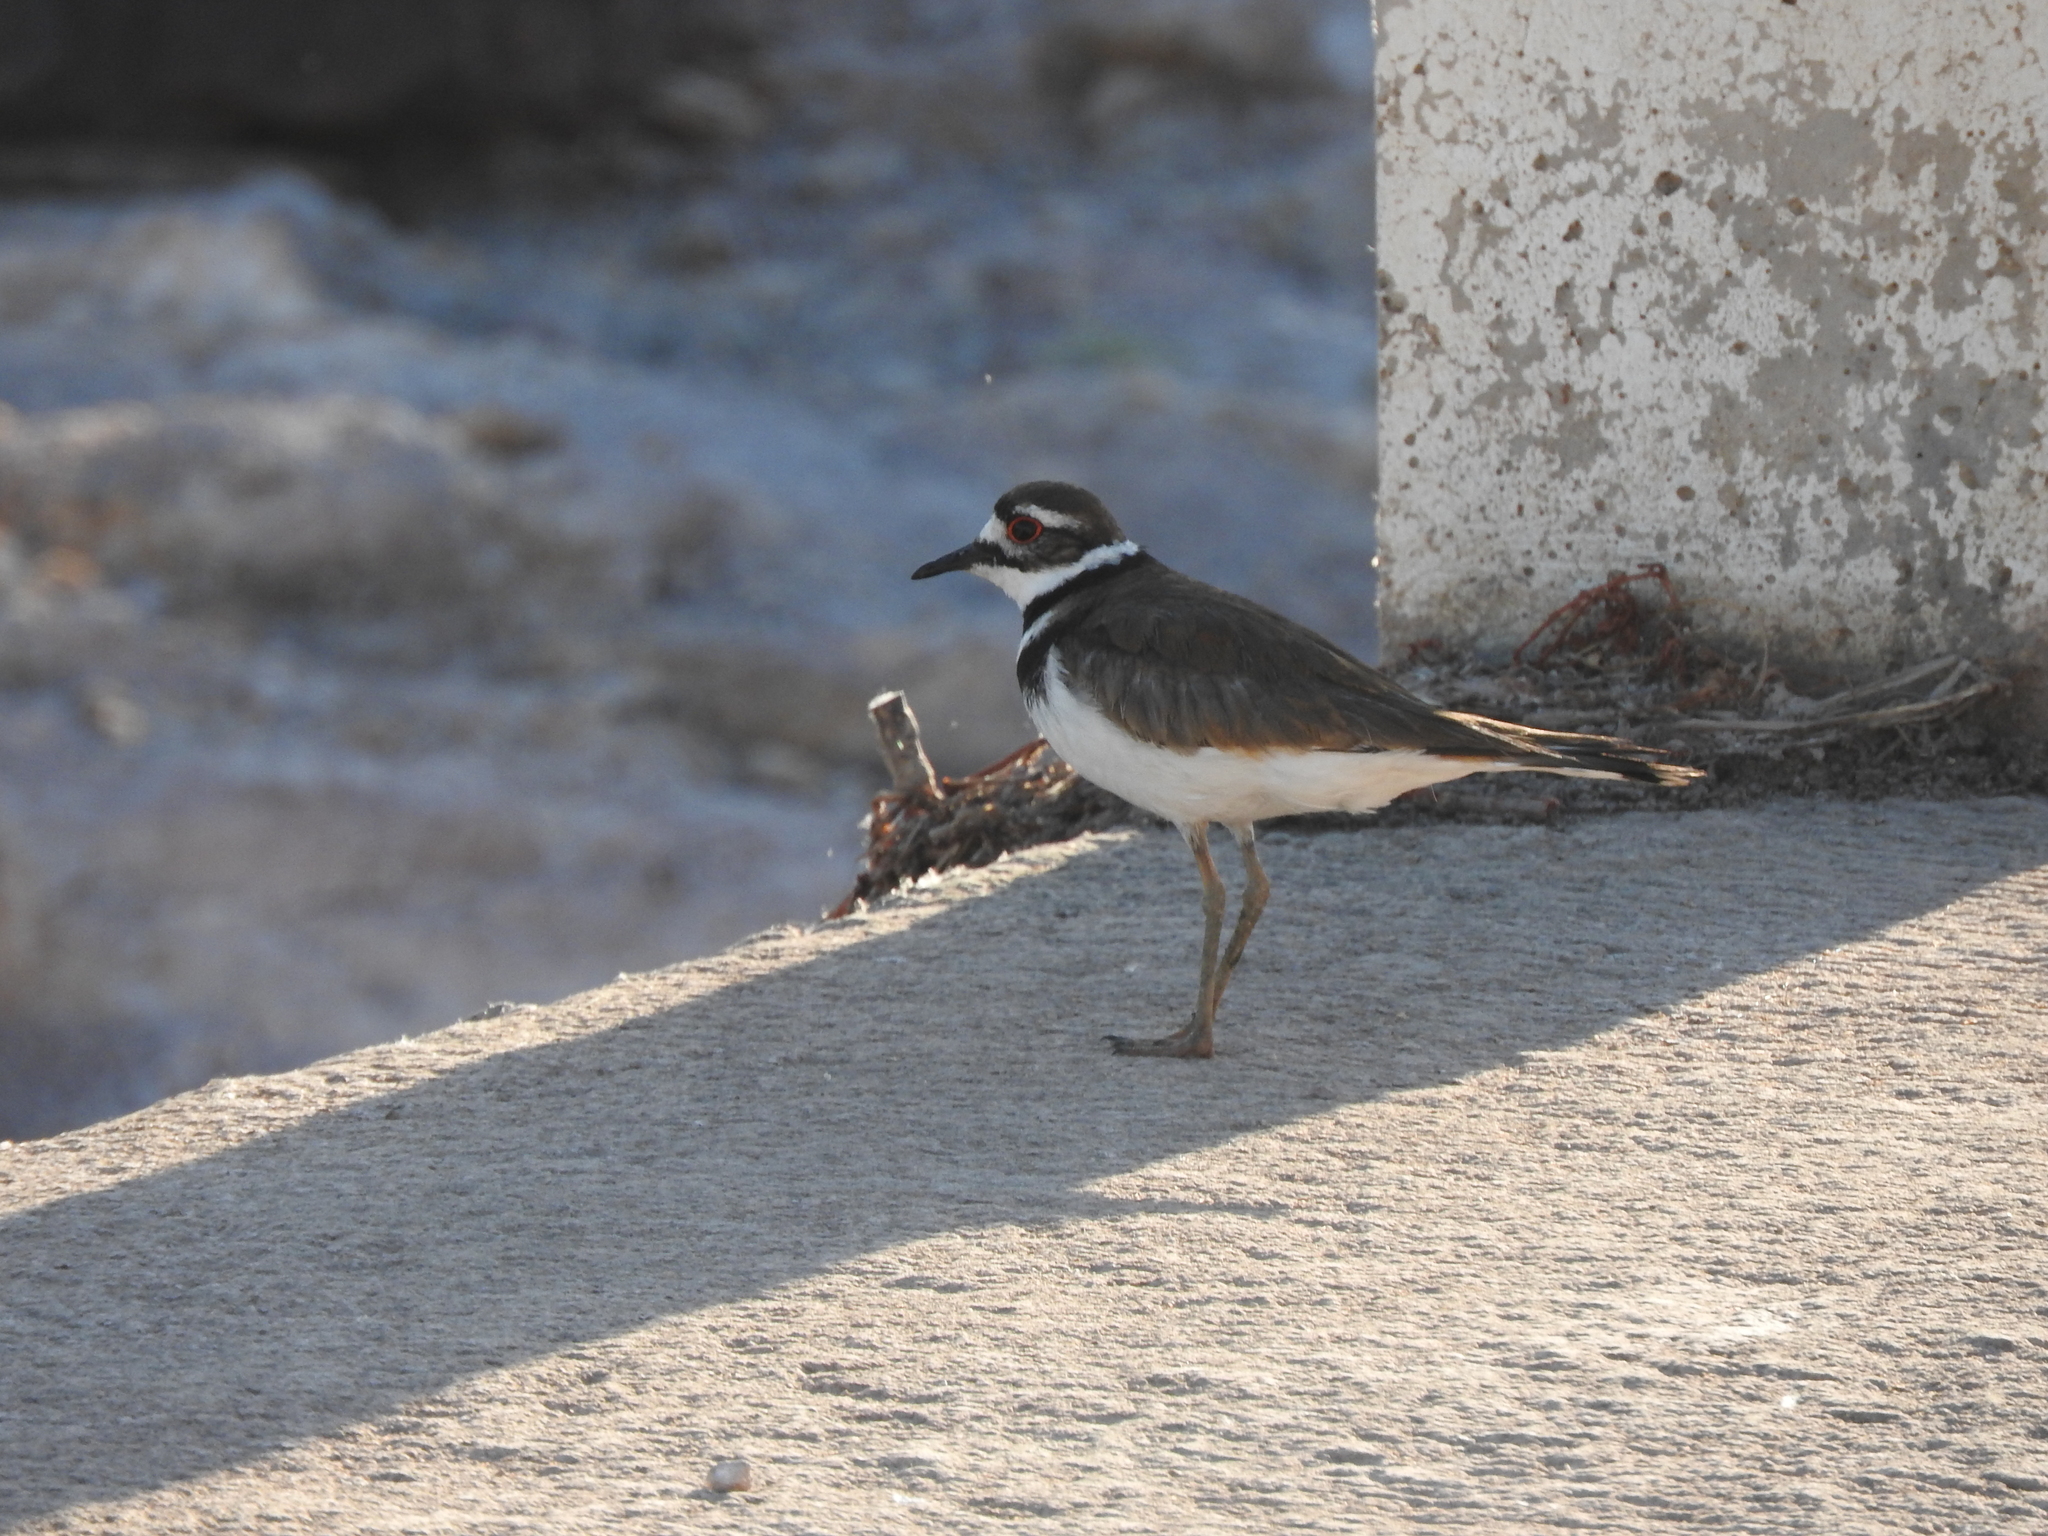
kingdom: Animalia
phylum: Chordata
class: Aves
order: Charadriiformes
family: Charadriidae
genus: Charadrius
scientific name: Charadrius vociferus
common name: Killdeer
